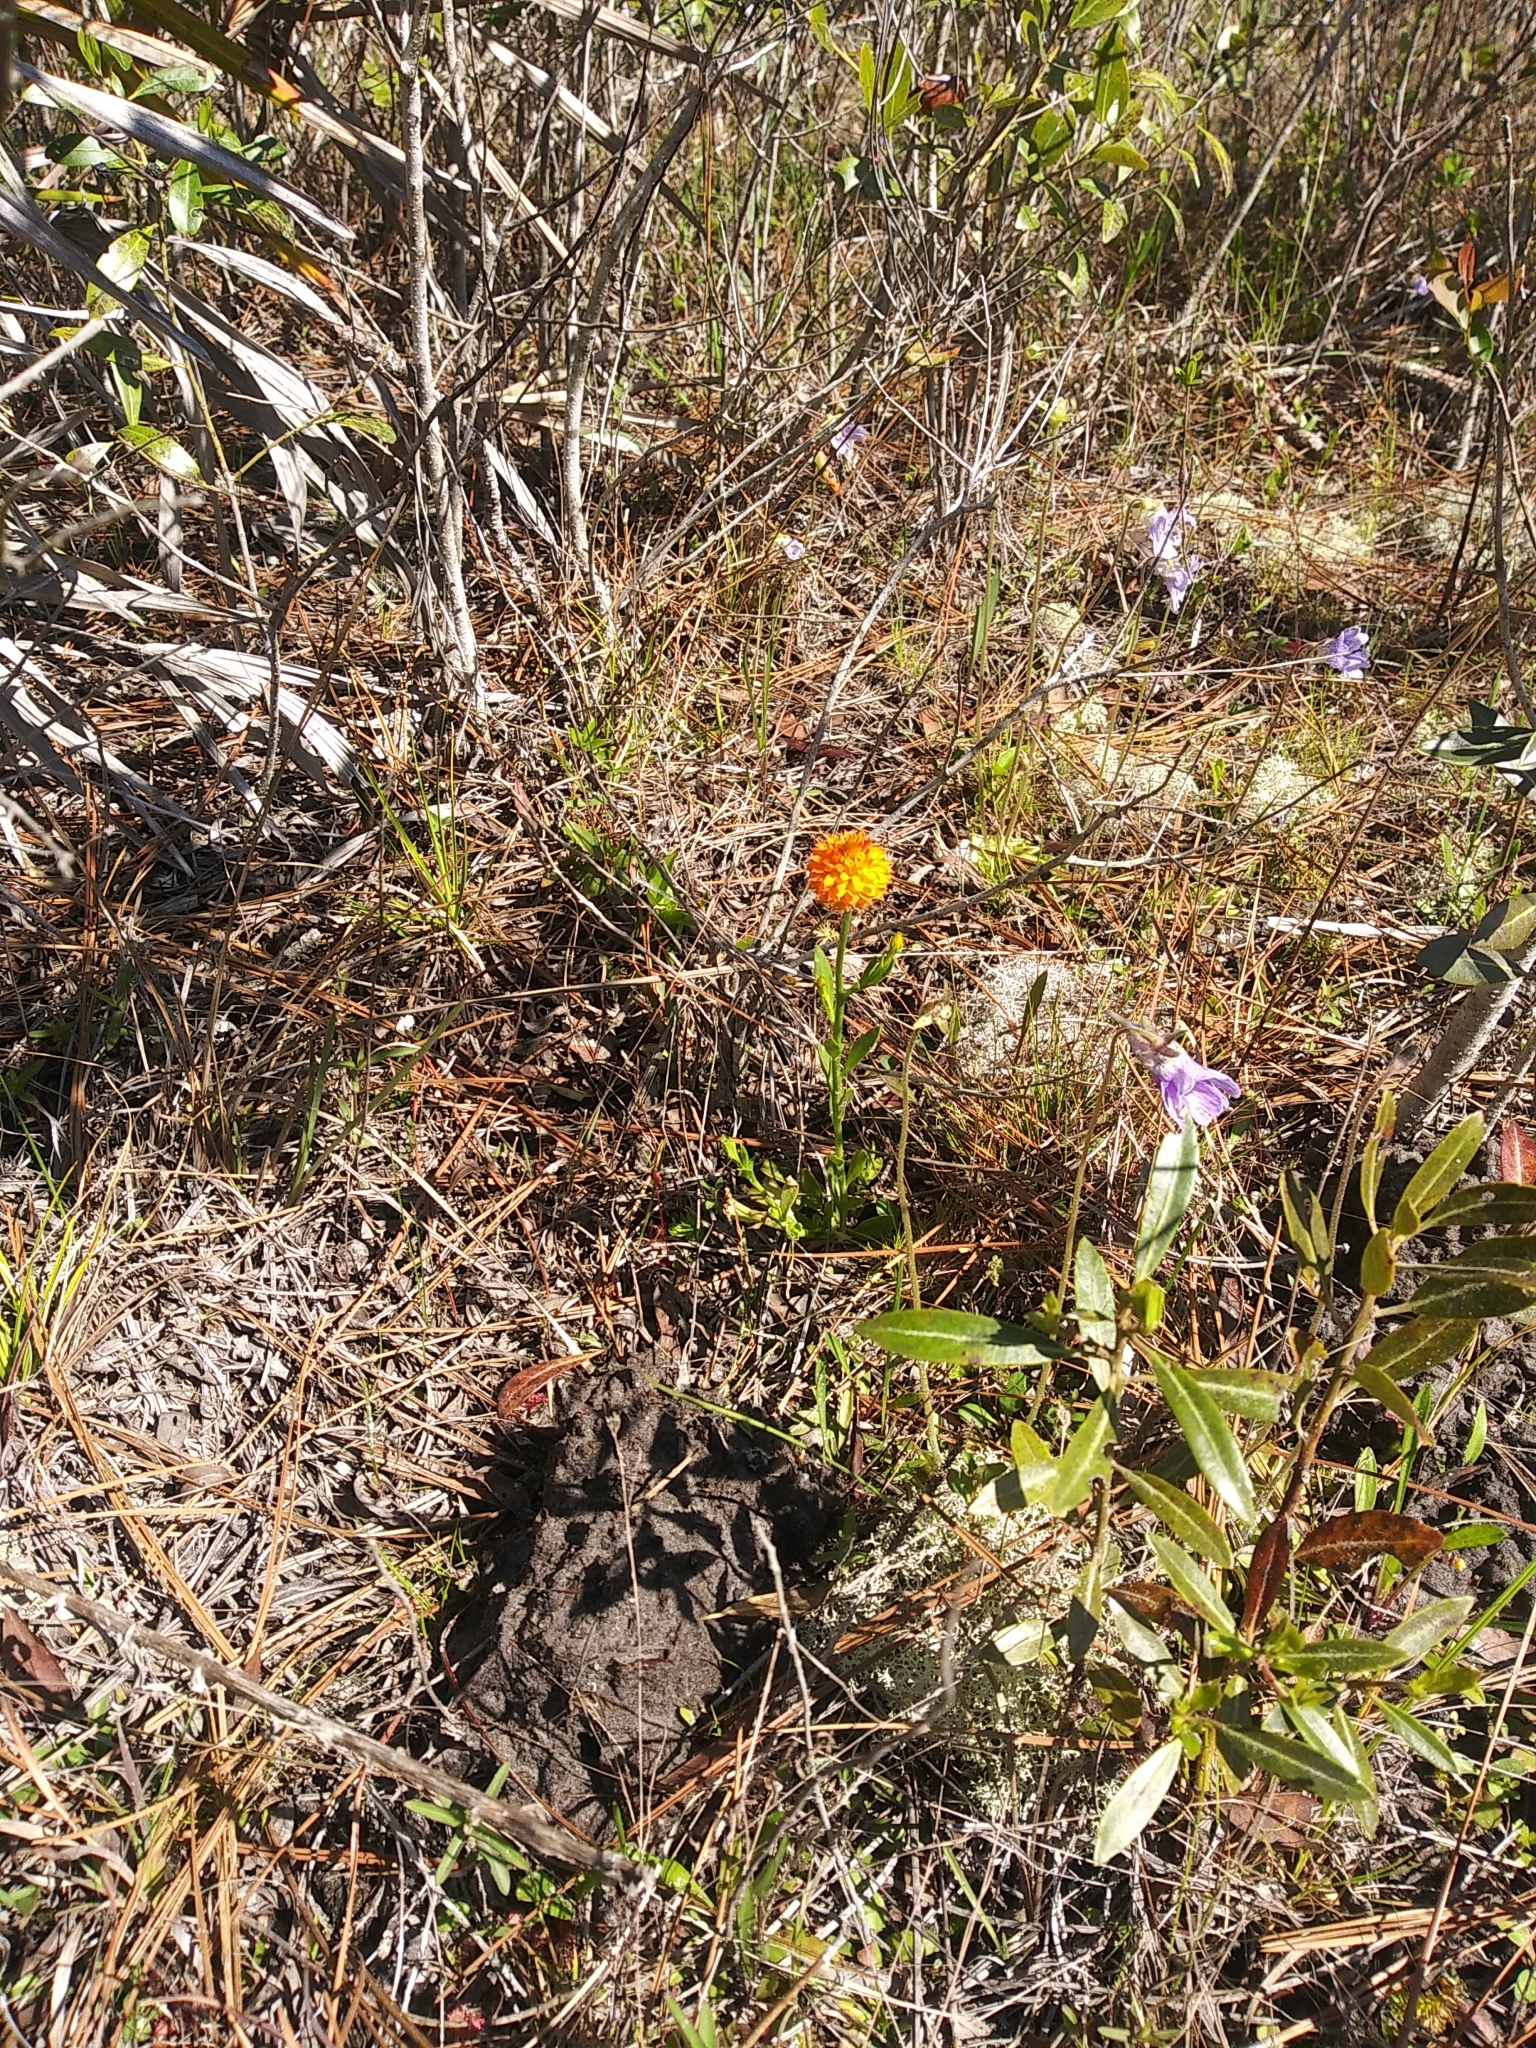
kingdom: Plantae
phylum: Tracheophyta
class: Magnoliopsida
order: Fabales
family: Polygalaceae
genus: Polygala
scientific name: Polygala lutea
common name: Orange milkwort
